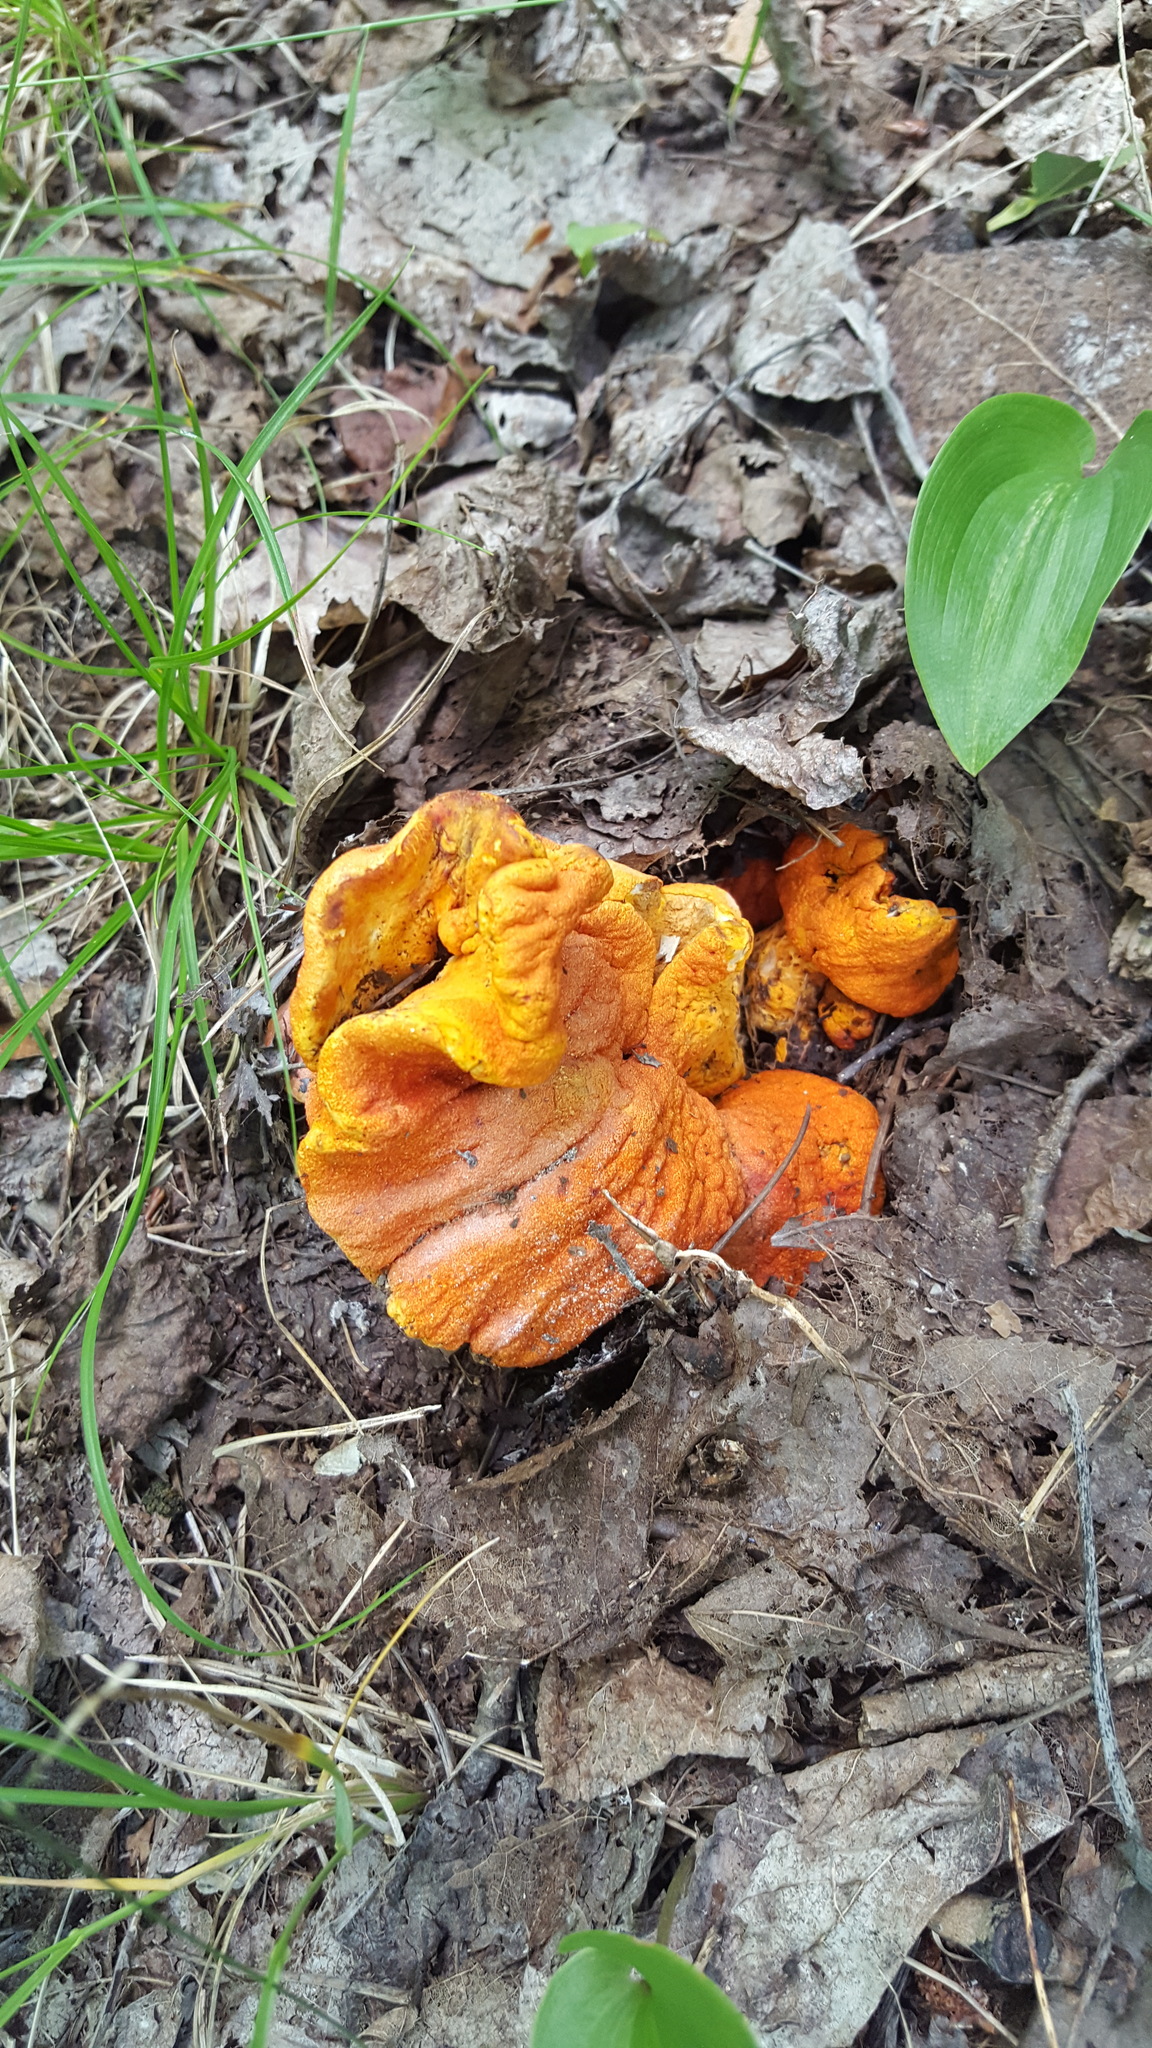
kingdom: Fungi
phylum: Ascomycota
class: Sordariomycetes
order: Hypocreales
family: Hypocreaceae
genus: Hypomyces
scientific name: Hypomyces lactifluorum
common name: Lobster mushroom
